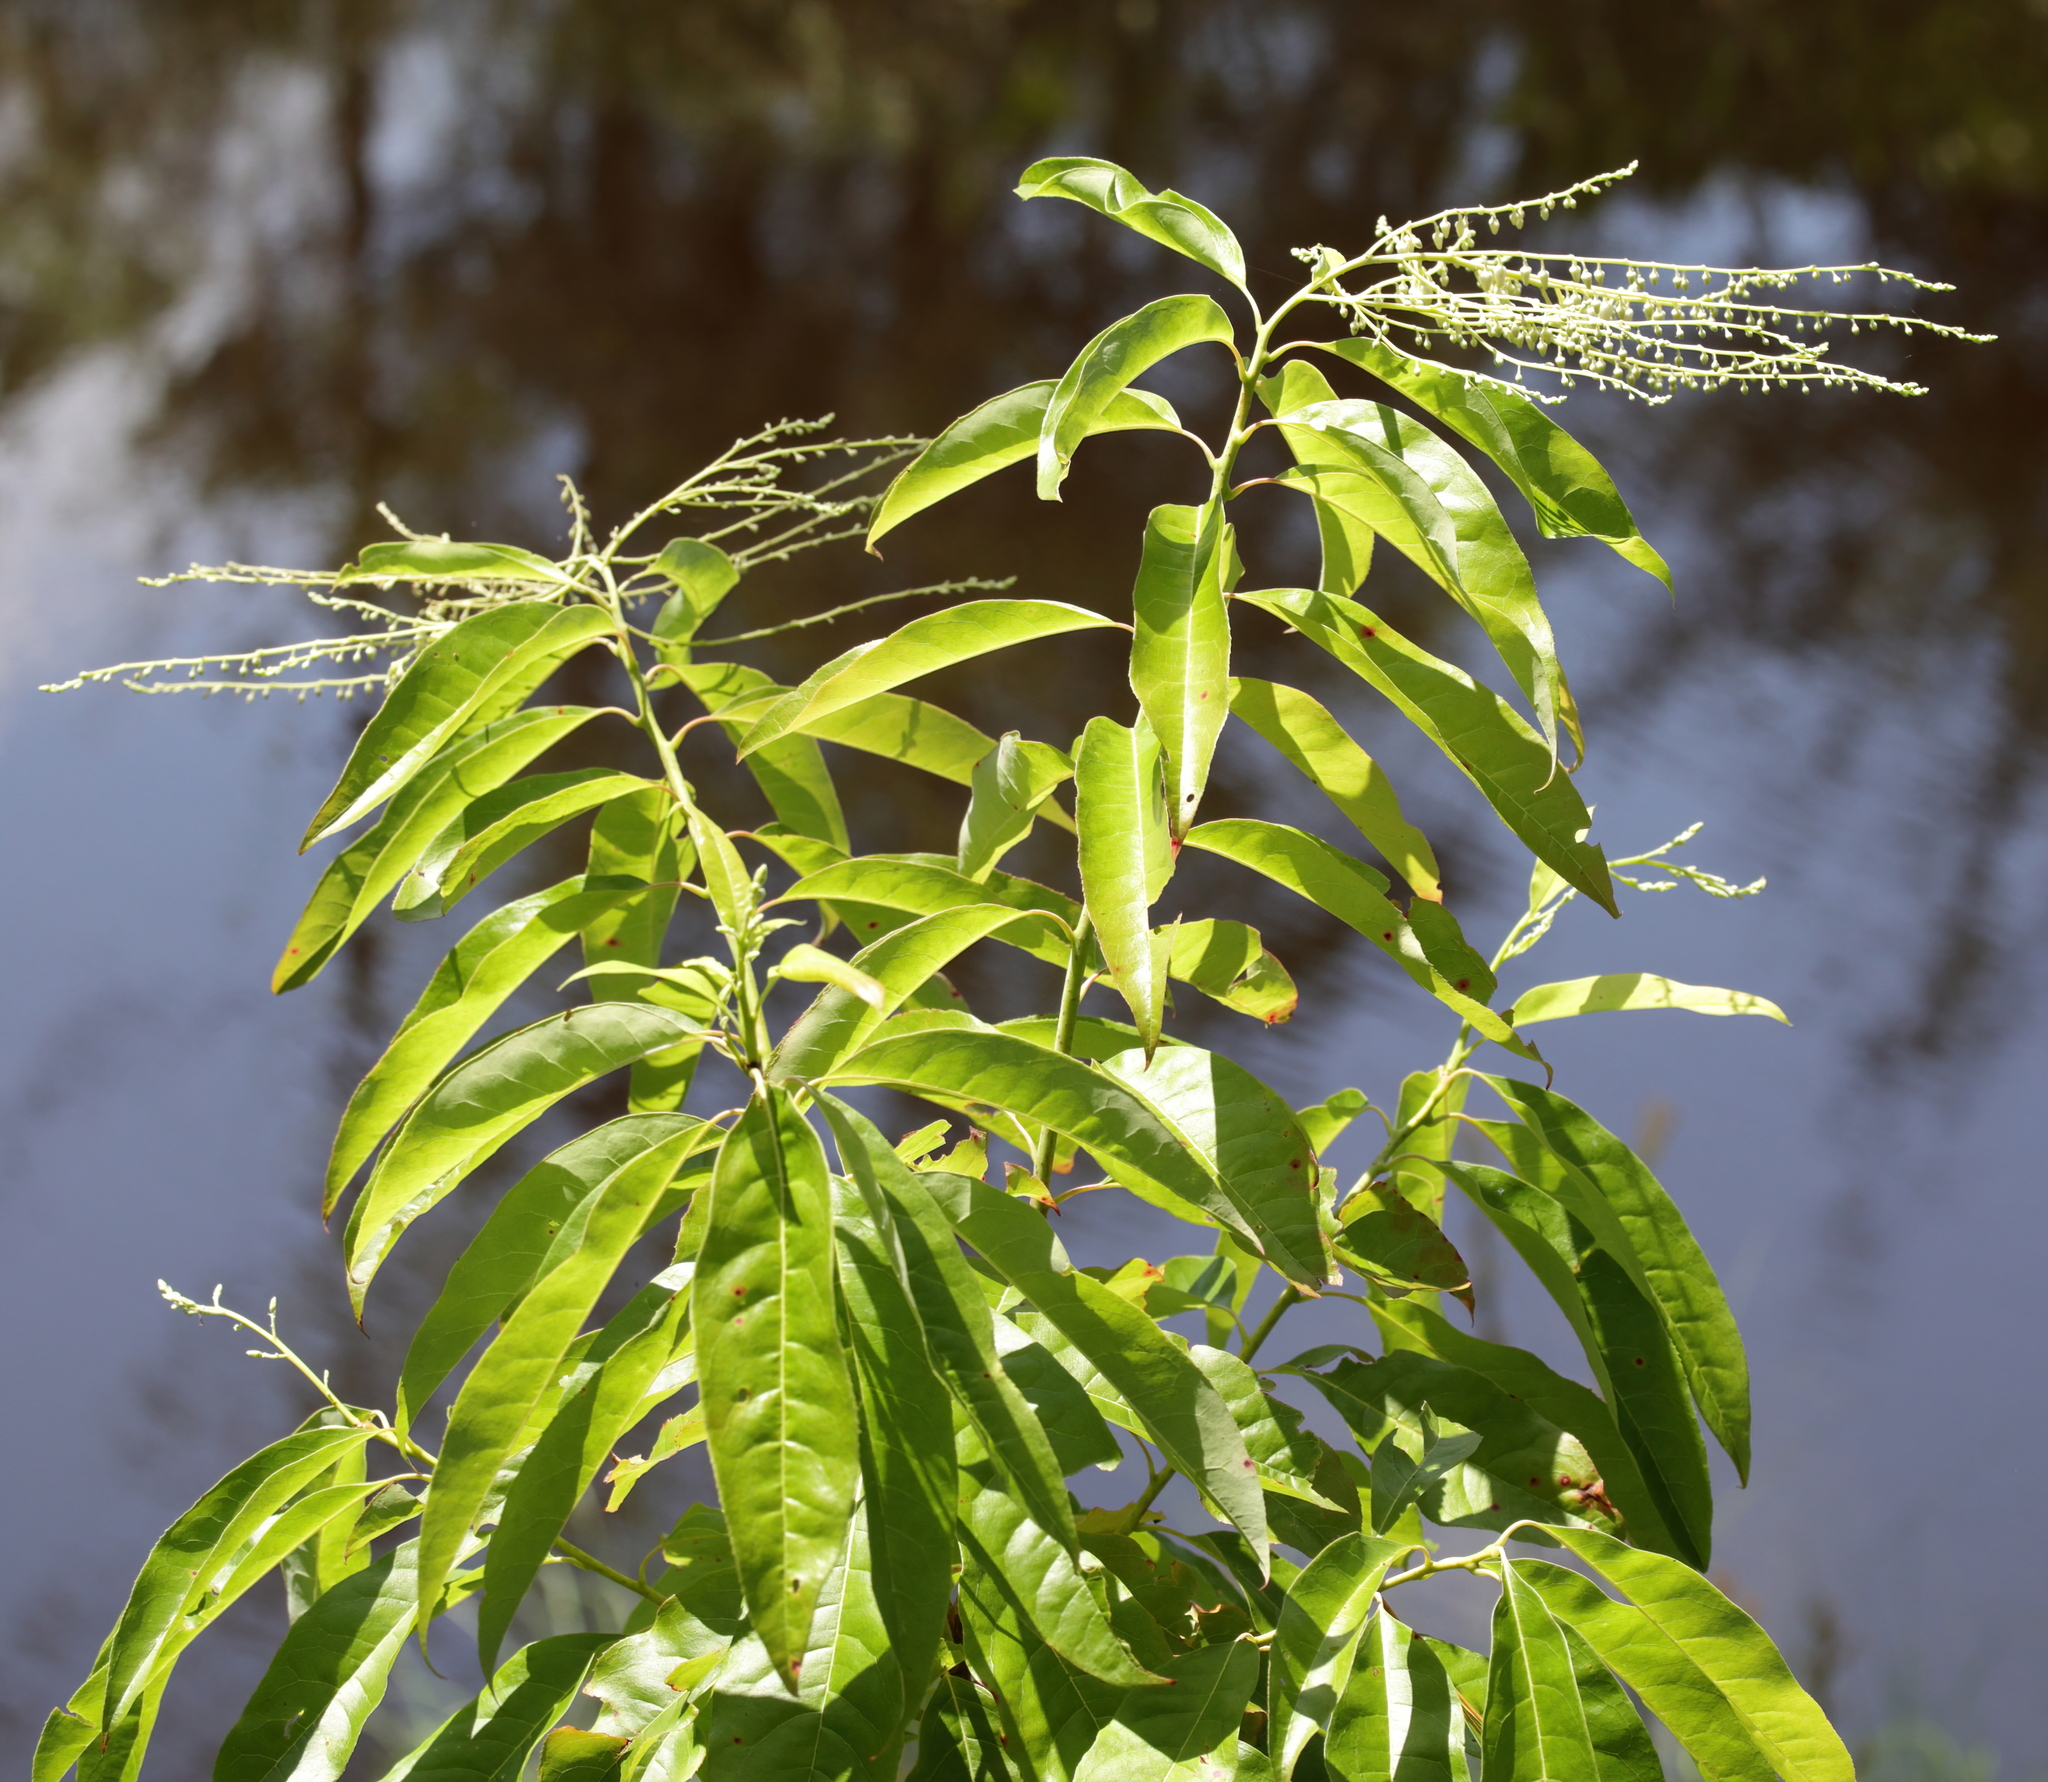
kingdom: Plantae
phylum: Tracheophyta
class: Magnoliopsida
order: Ericales
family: Ericaceae
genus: Oxydendrum
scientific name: Oxydendrum arboreum
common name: Sourwood
